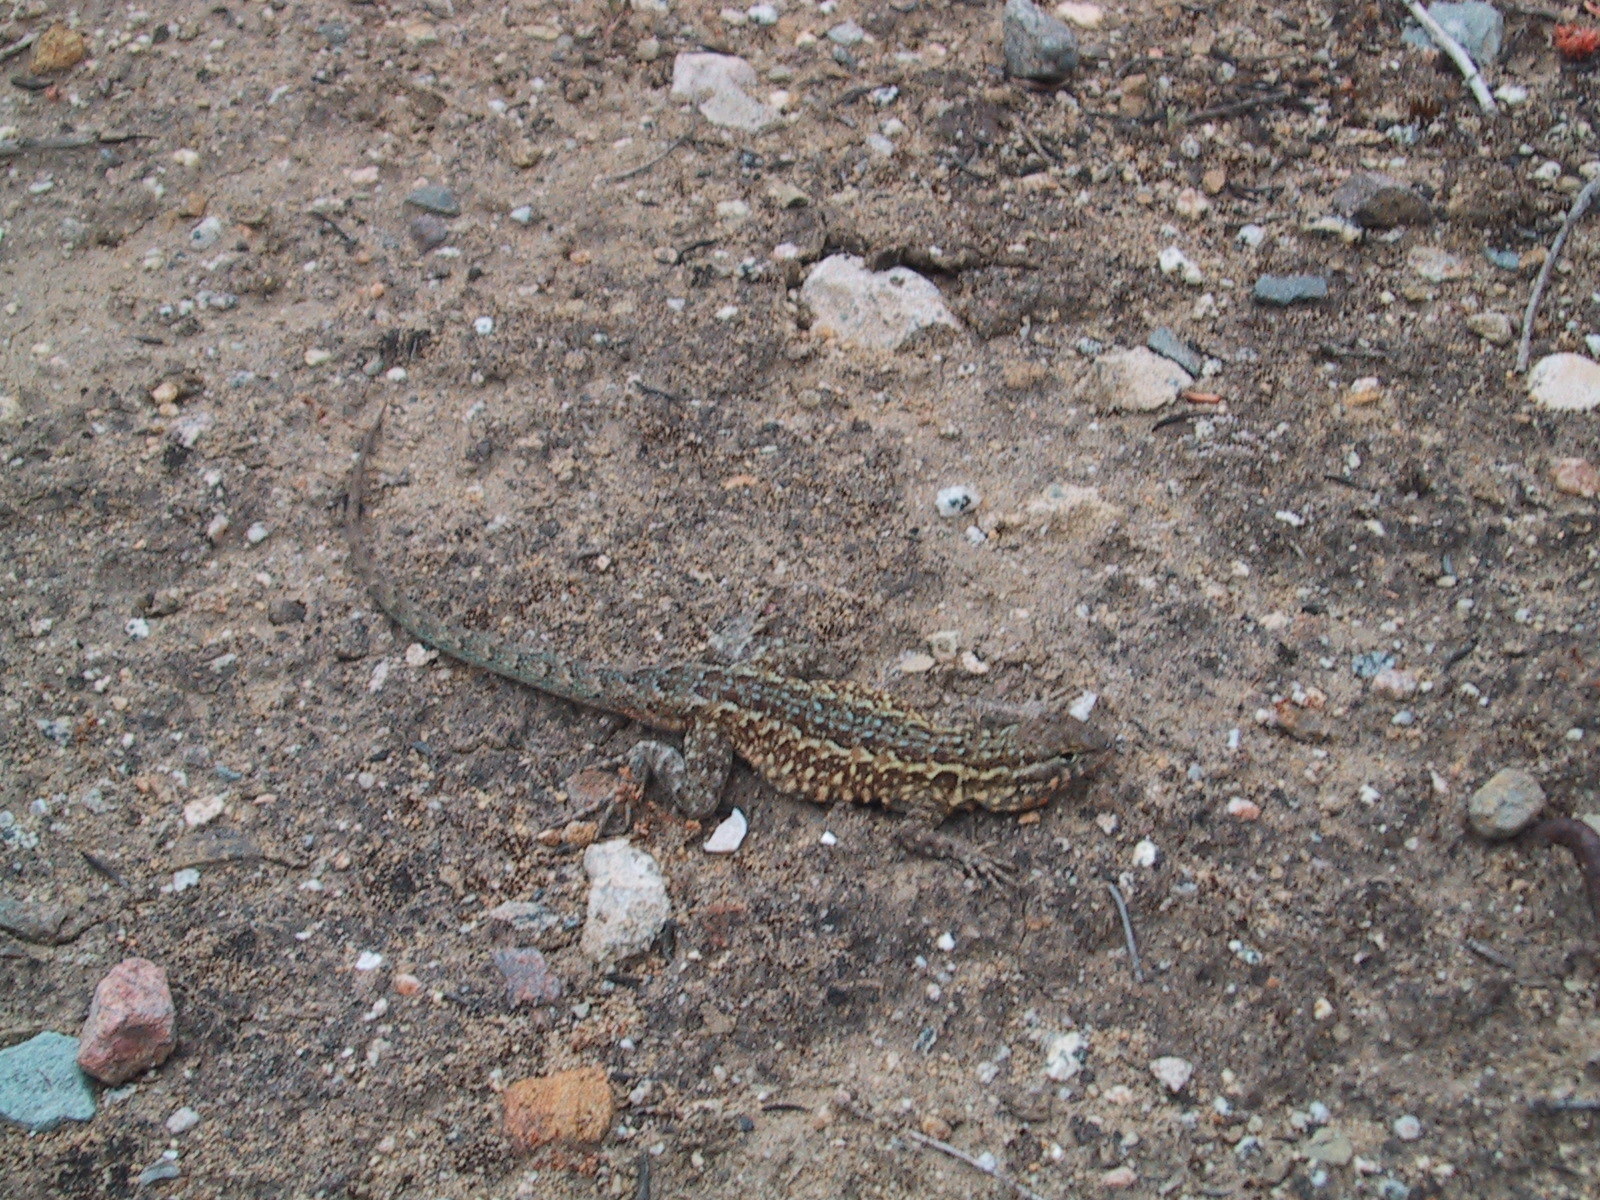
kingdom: Animalia
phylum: Chordata
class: Squamata
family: Phrynosomatidae
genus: Uta
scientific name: Uta stansburiana
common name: Side-blotched lizard
